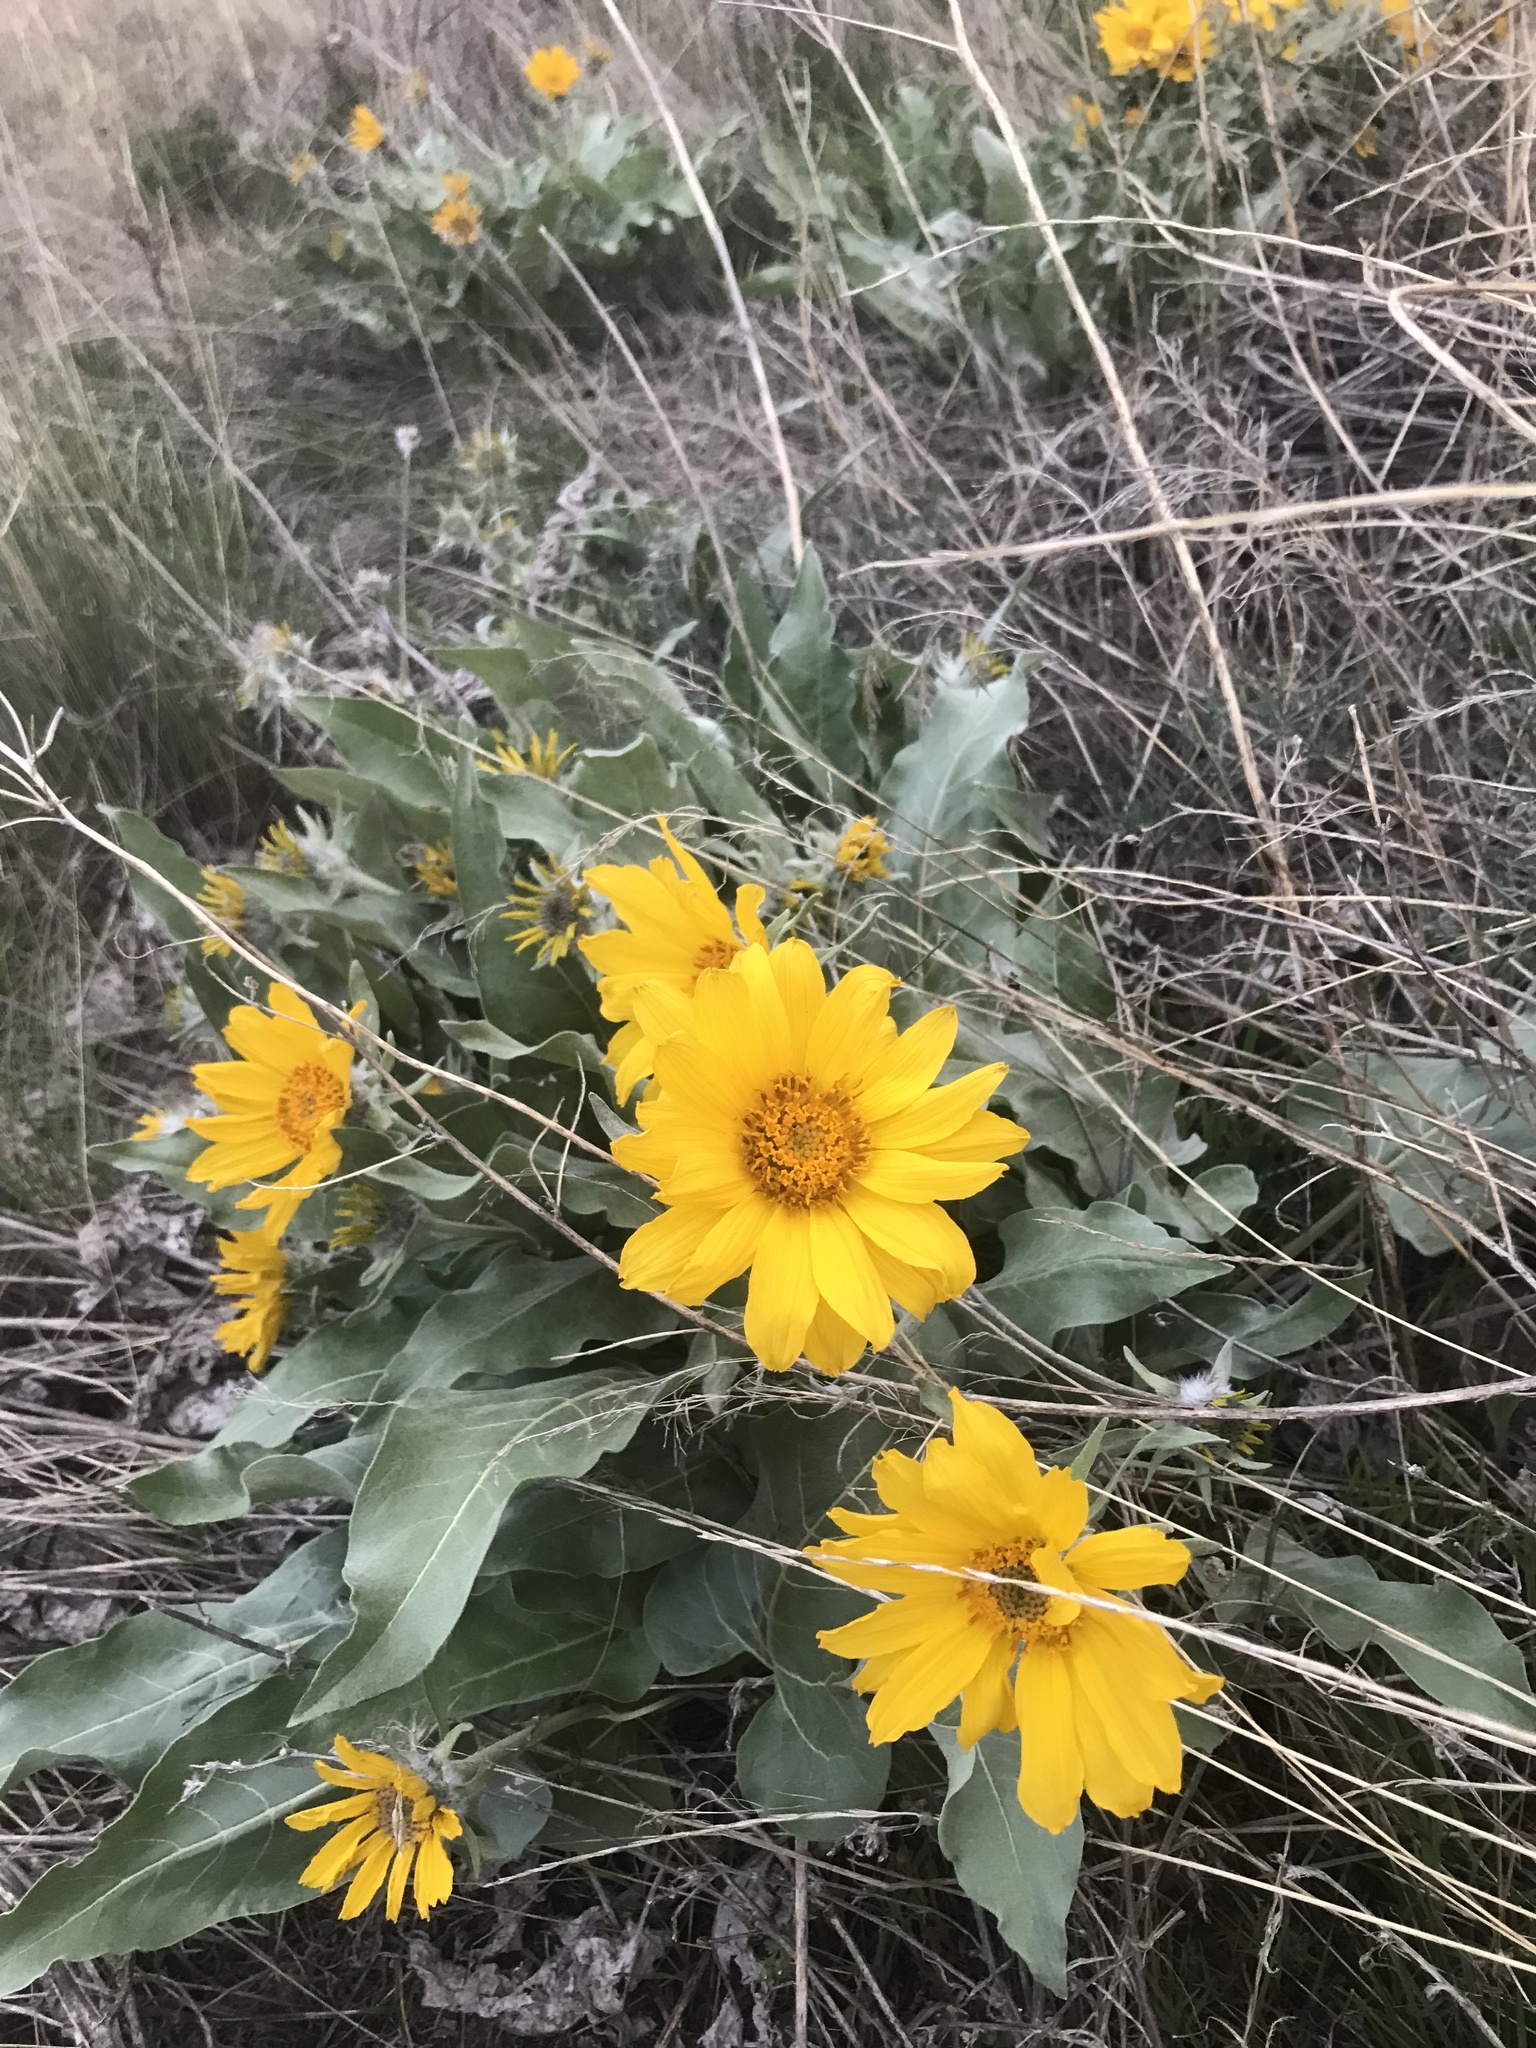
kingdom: Plantae
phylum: Tracheophyta
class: Magnoliopsida
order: Asterales
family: Asteraceae
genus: Wyethia
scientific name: Wyethia sagittata
